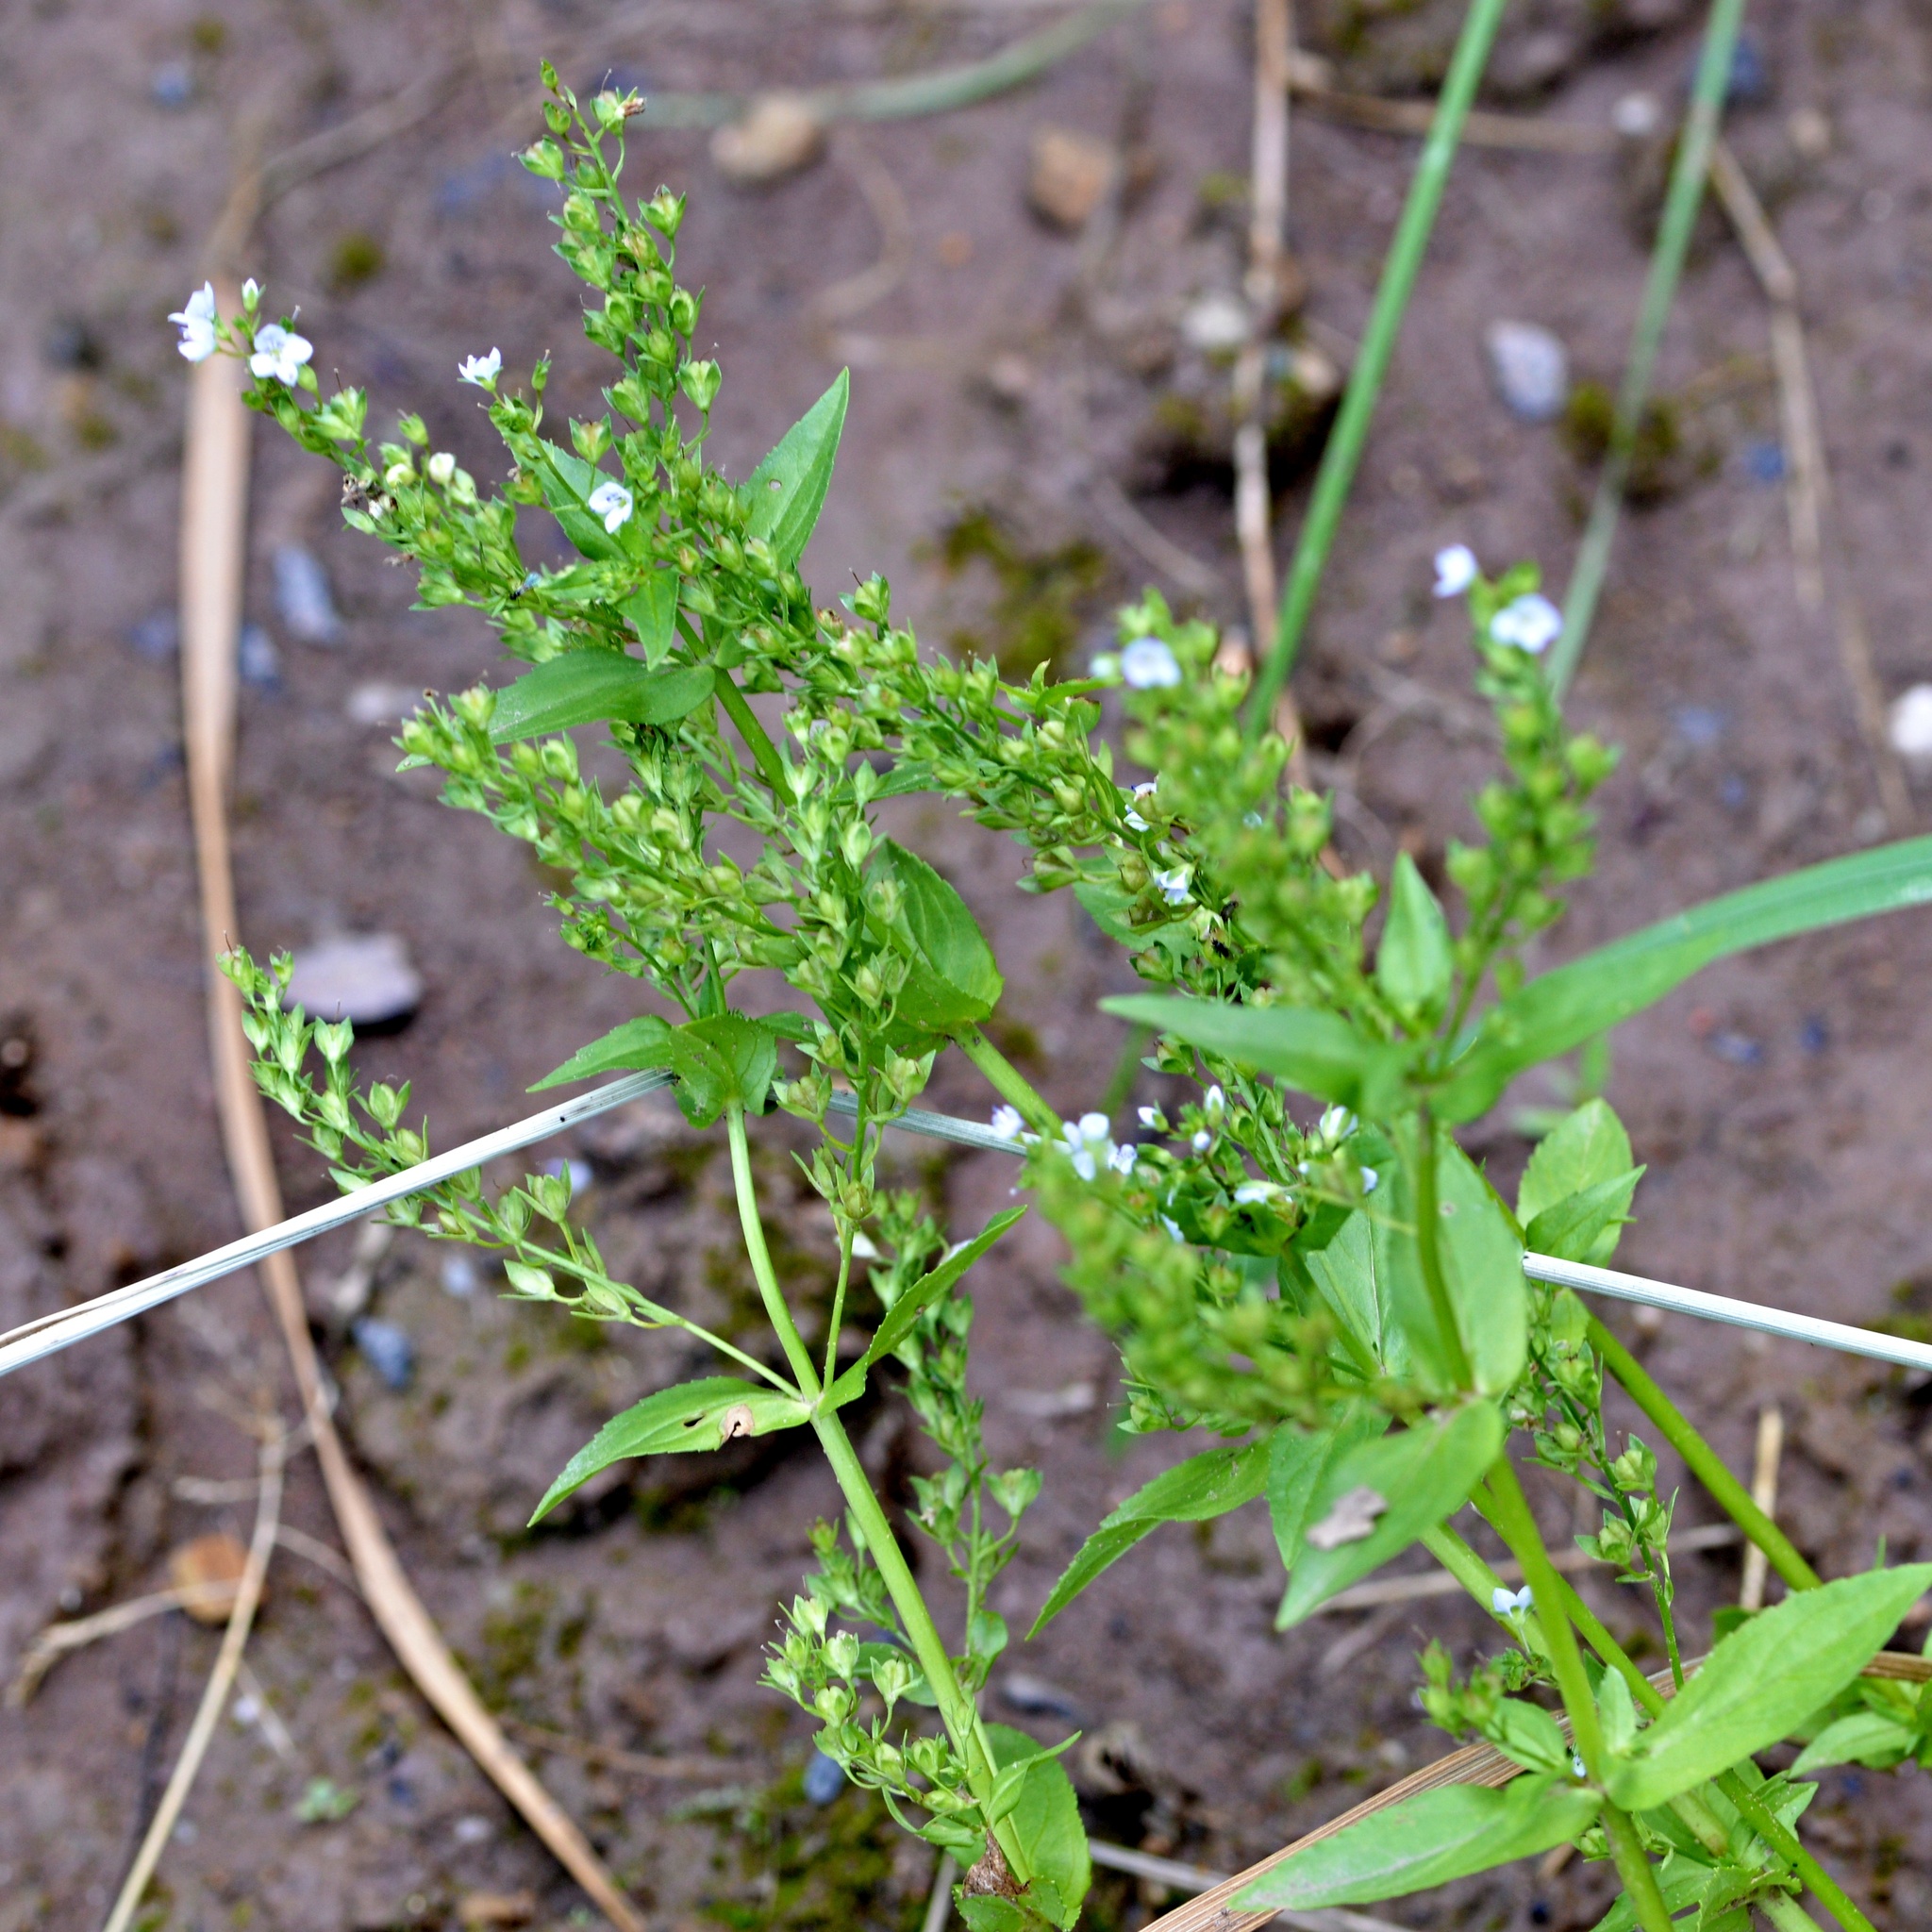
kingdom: Plantae
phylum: Tracheophyta
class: Magnoliopsida
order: Lamiales
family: Plantaginaceae
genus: Veronica
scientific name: Veronica anagallis-aquatica
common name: Water speedwell
